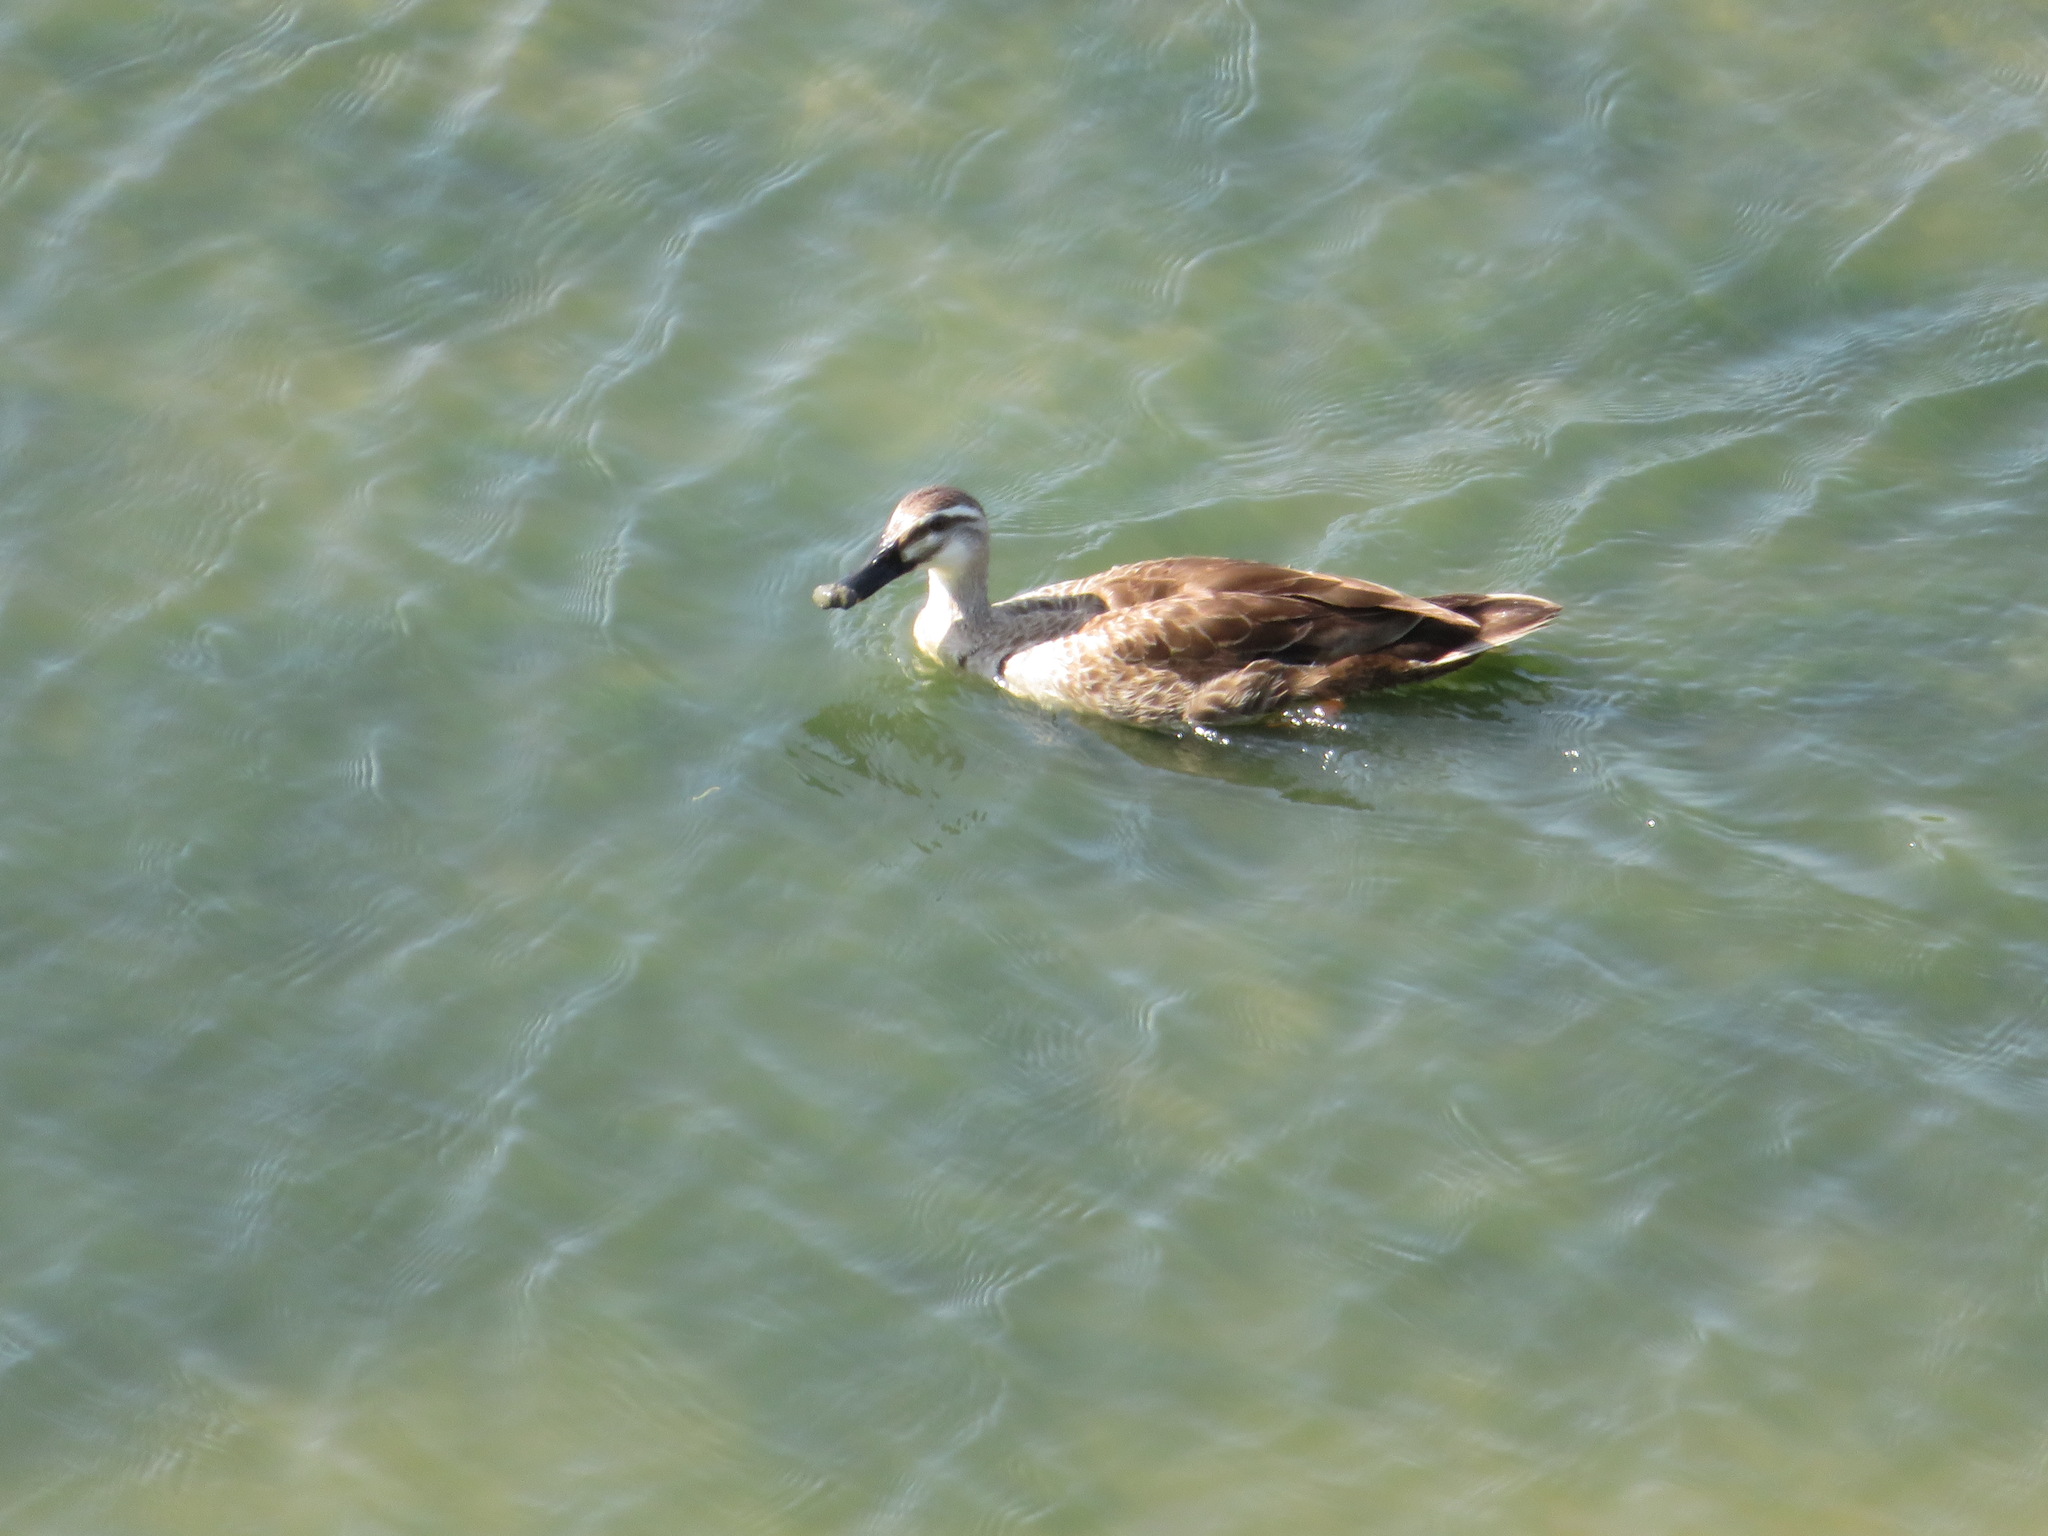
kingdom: Animalia
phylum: Chordata
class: Aves
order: Anseriformes
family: Anatidae
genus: Anas
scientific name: Anas zonorhyncha
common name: Eastern spot-billed duck
